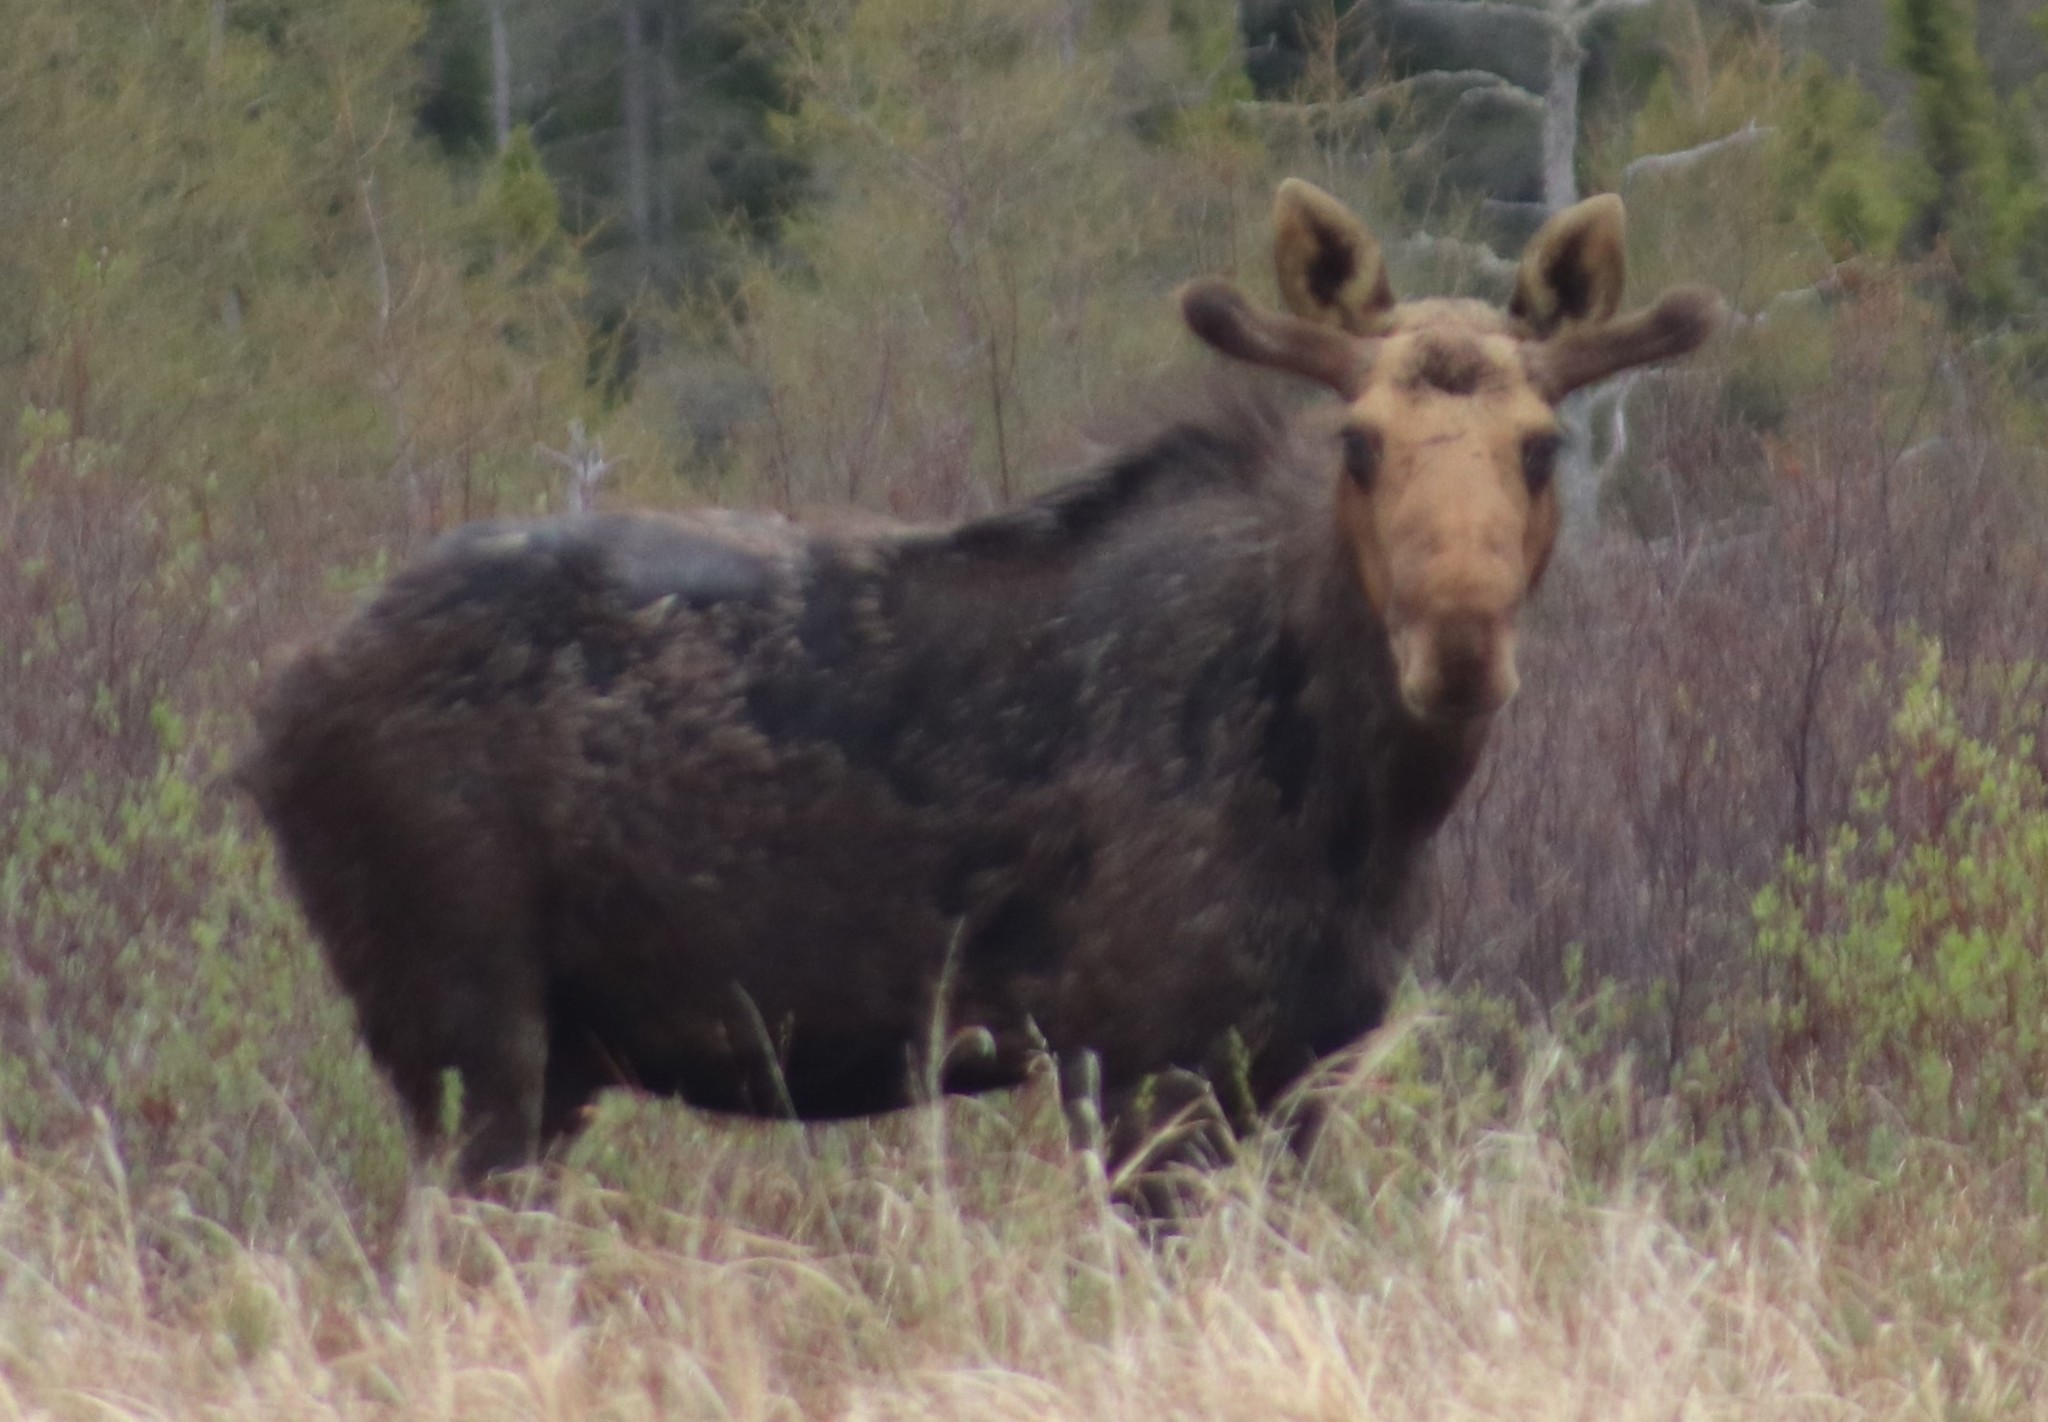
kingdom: Animalia
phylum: Chordata
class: Mammalia
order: Artiodactyla
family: Cervidae
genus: Alces
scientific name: Alces alces
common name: Moose
